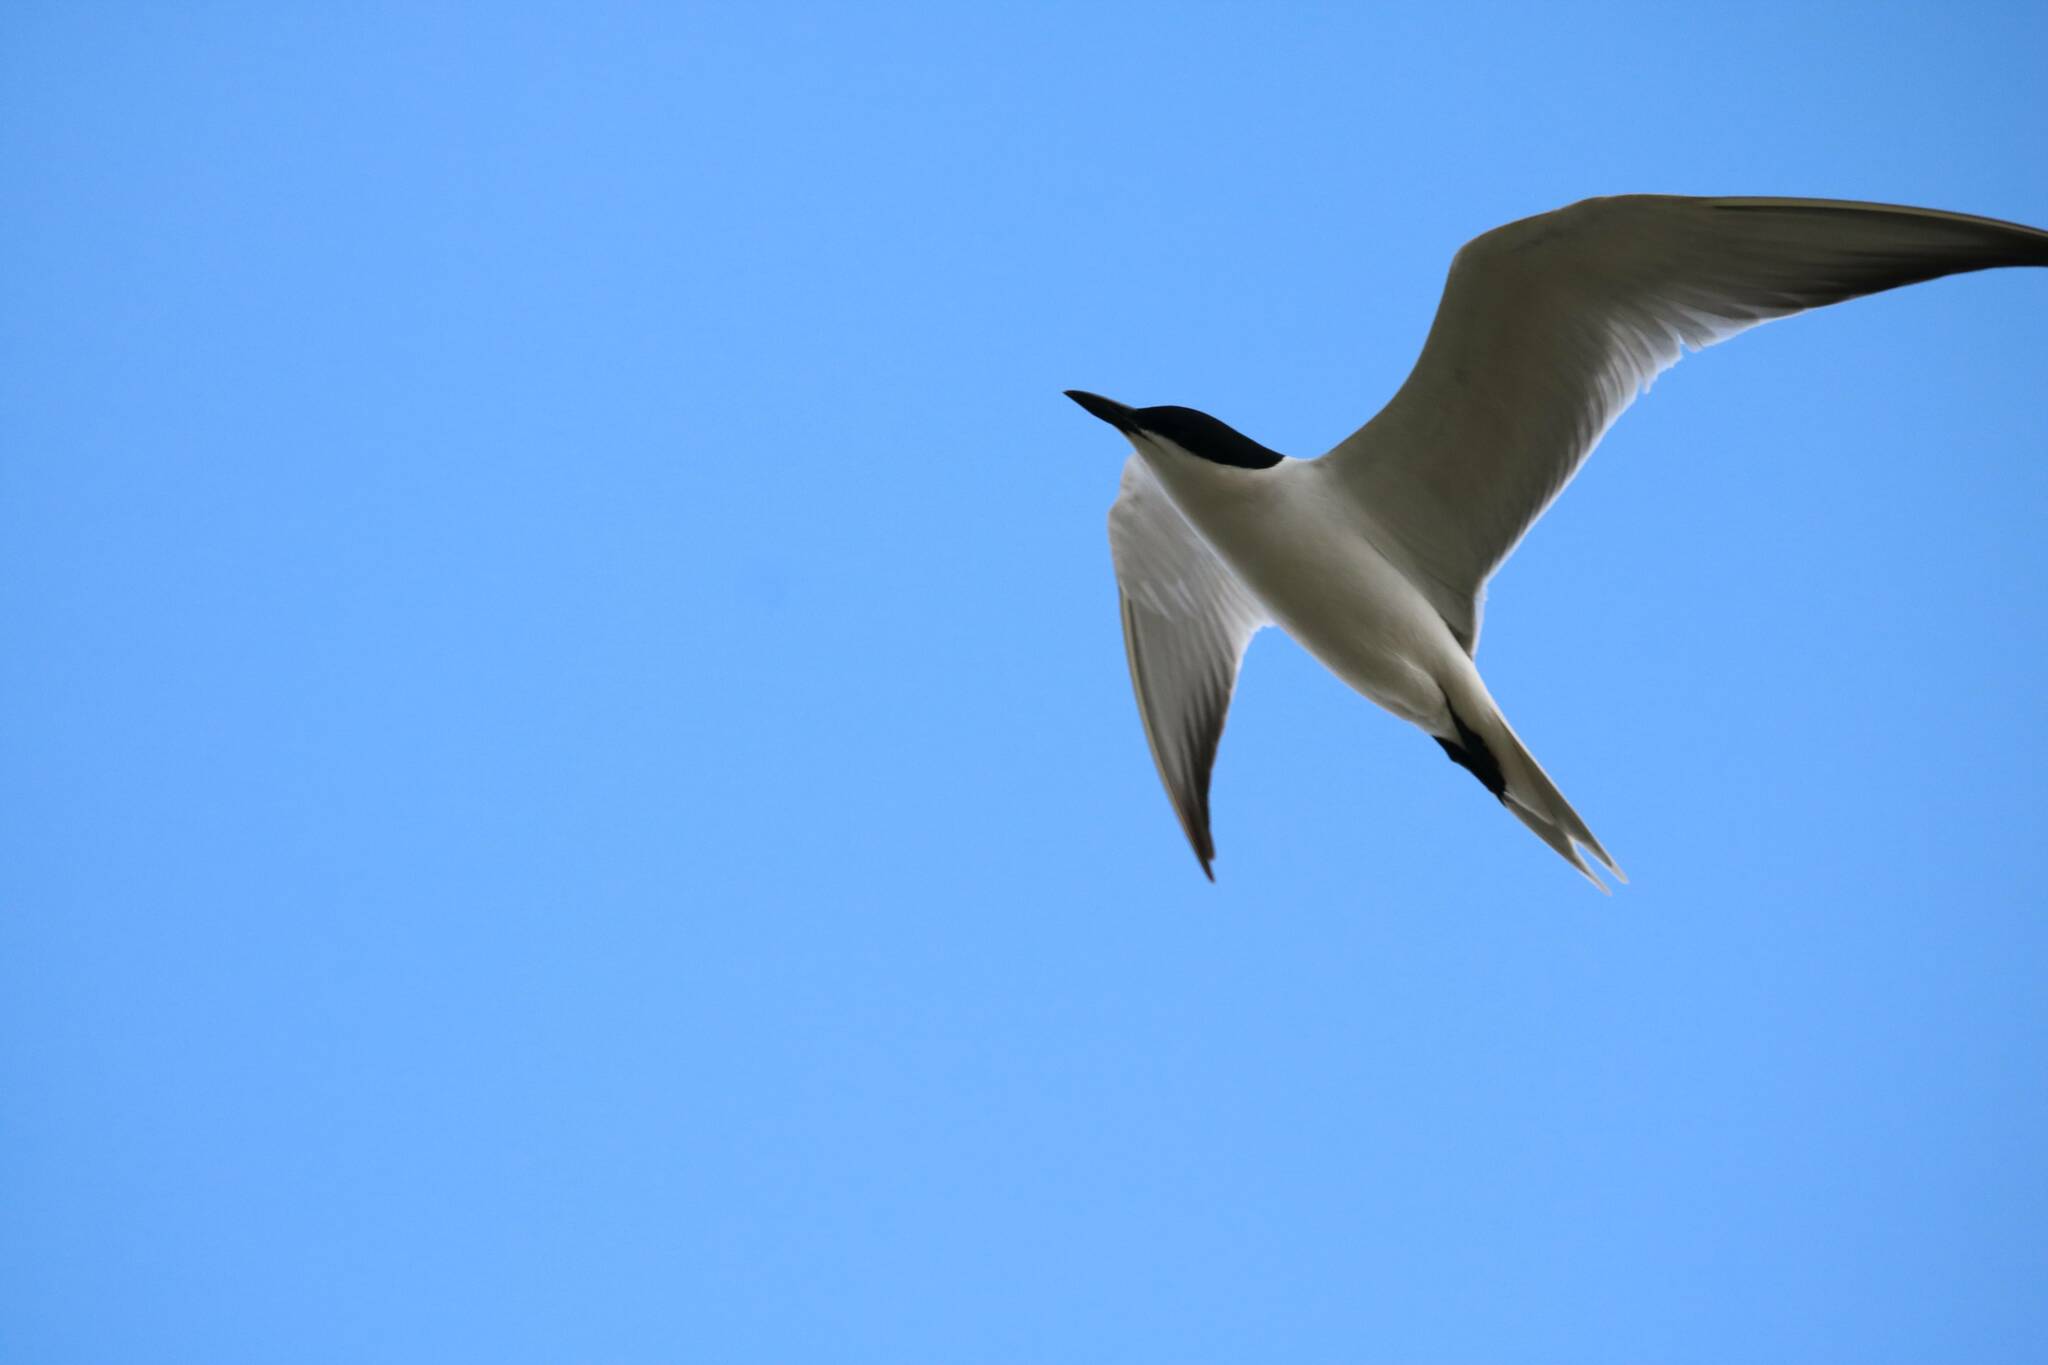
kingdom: Animalia
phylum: Chordata
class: Aves
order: Charadriiformes
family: Laridae
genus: Gelochelidon
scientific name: Gelochelidon nilotica
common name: Gull-billed tern
